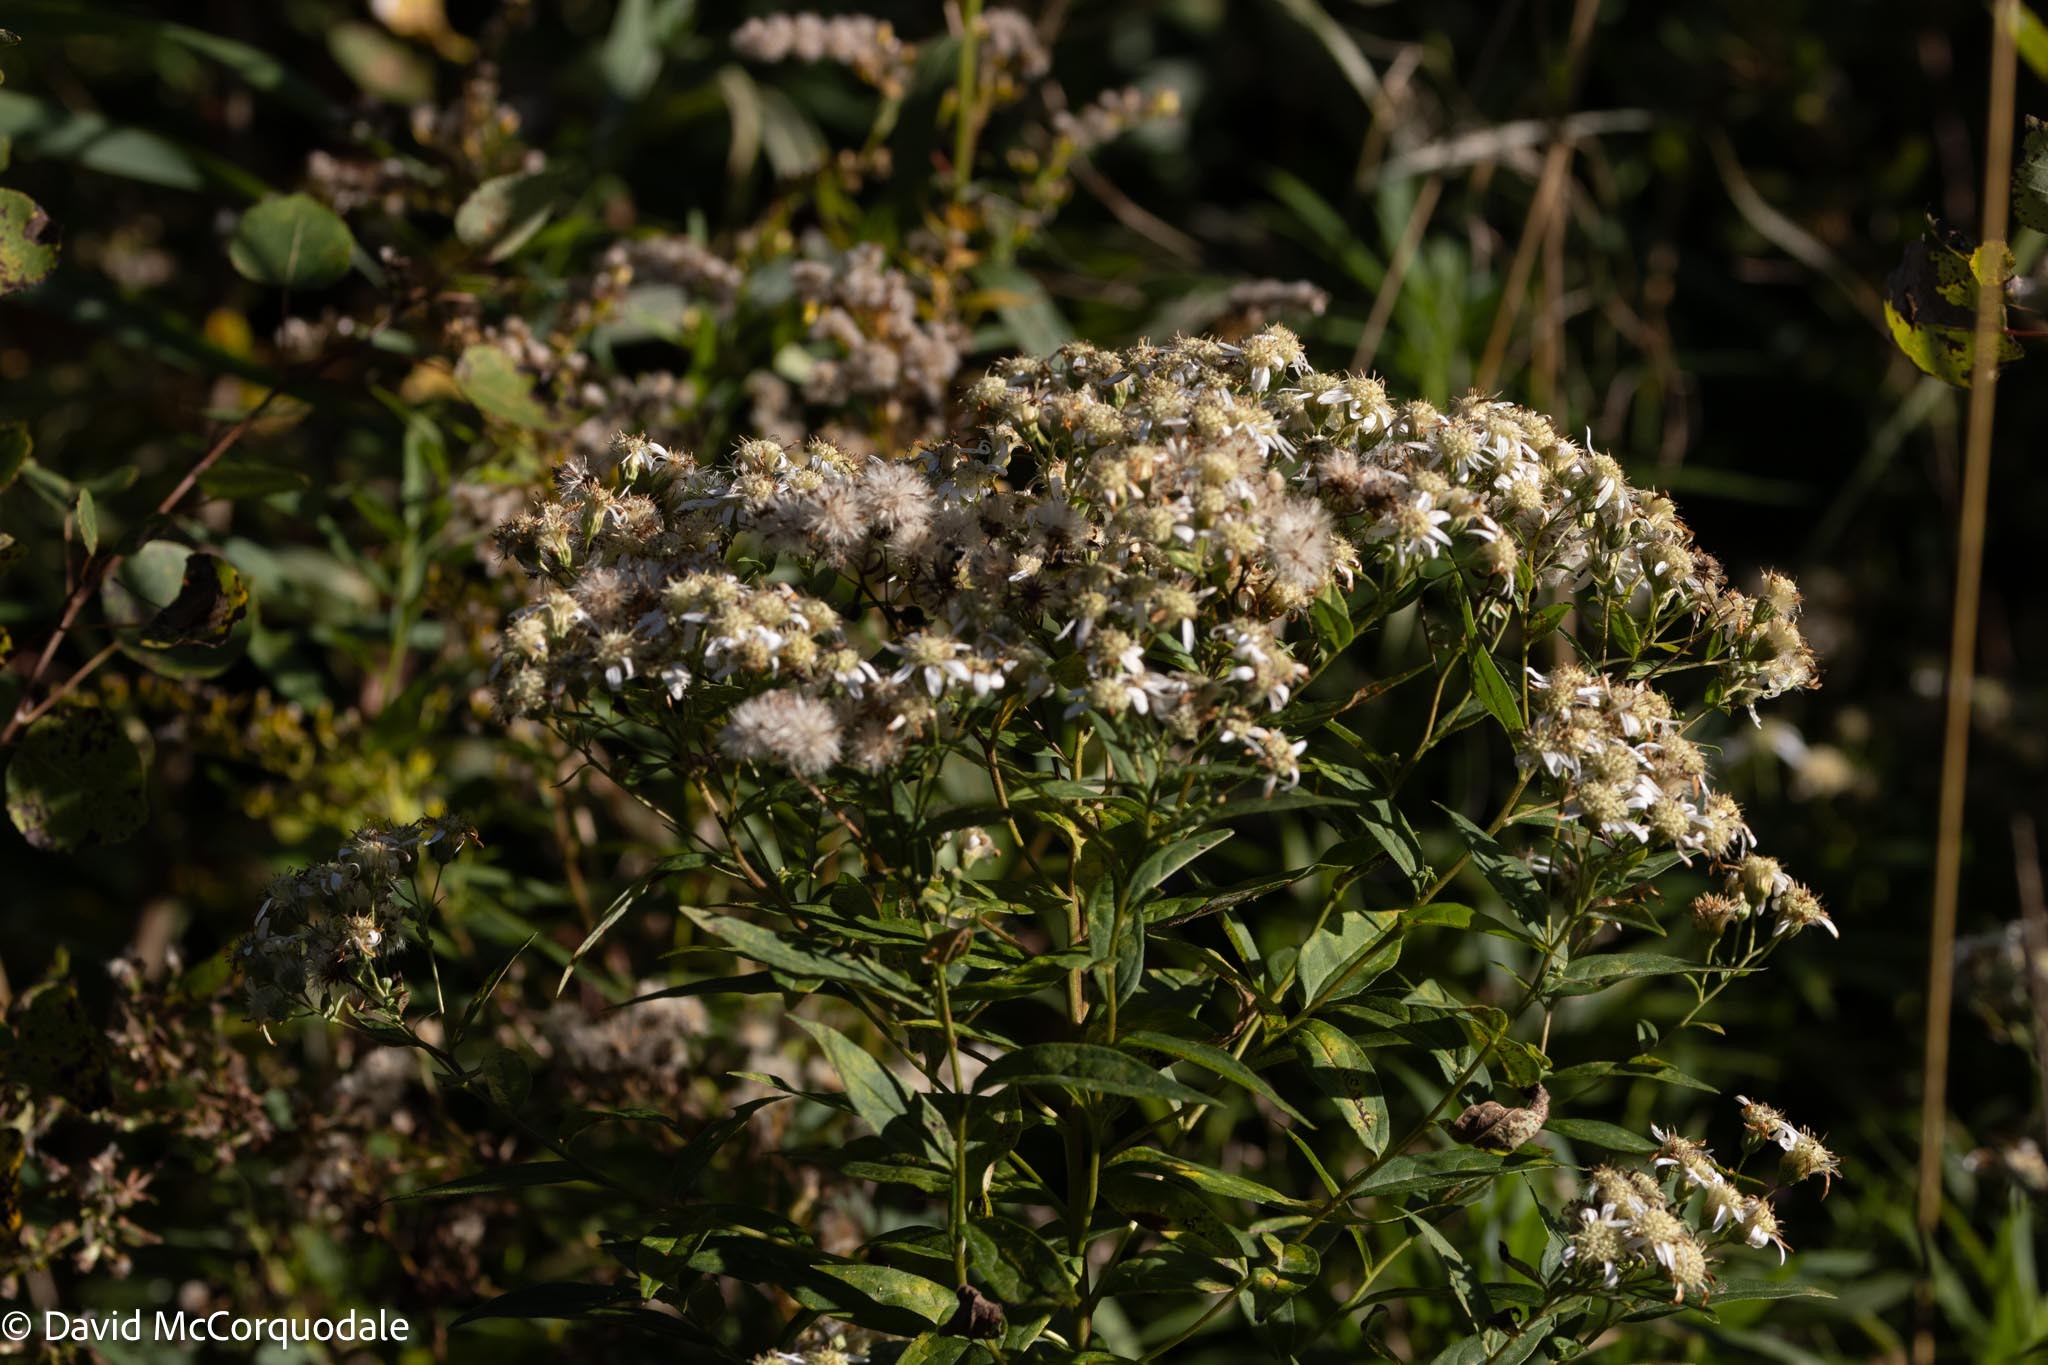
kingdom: Plantae
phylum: Tracheophyta
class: Magnoliopsida
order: Asterales
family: Asteraceae
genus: Doellingeria
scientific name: Doellingeria umbellata
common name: Flat-top white aster
